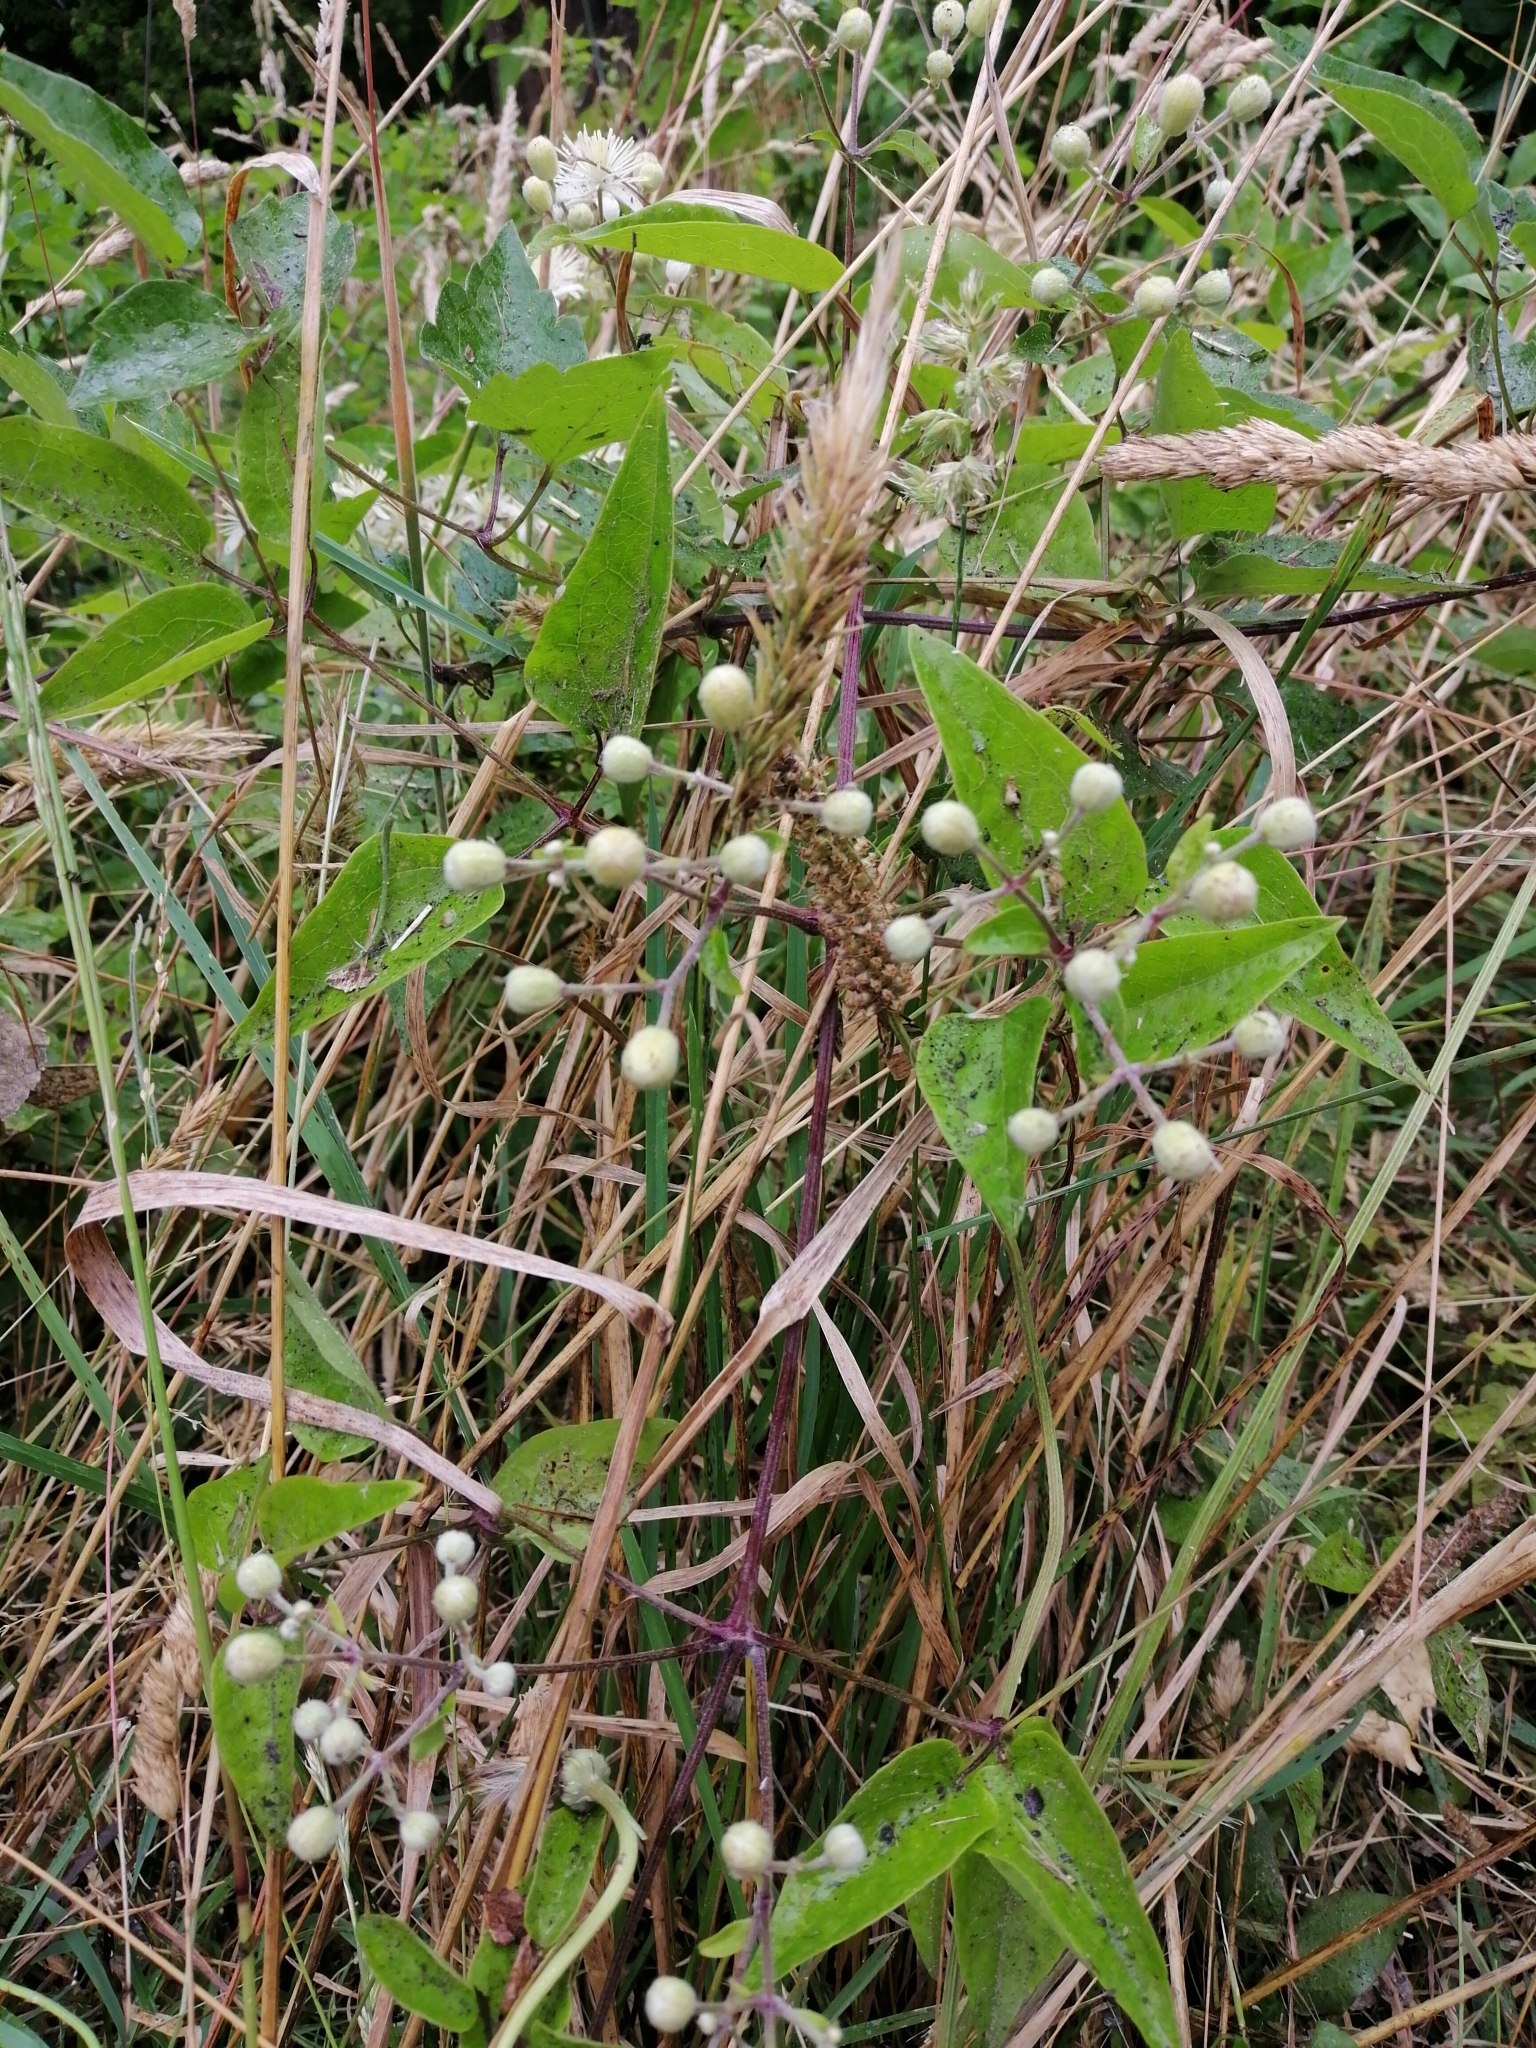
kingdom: Plantae
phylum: Tracheophyta
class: Magnoliopsida
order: Ranunculales
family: Ranunculaceae
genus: Clematis
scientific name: Clematis vitalba
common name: Evergreen clematis
